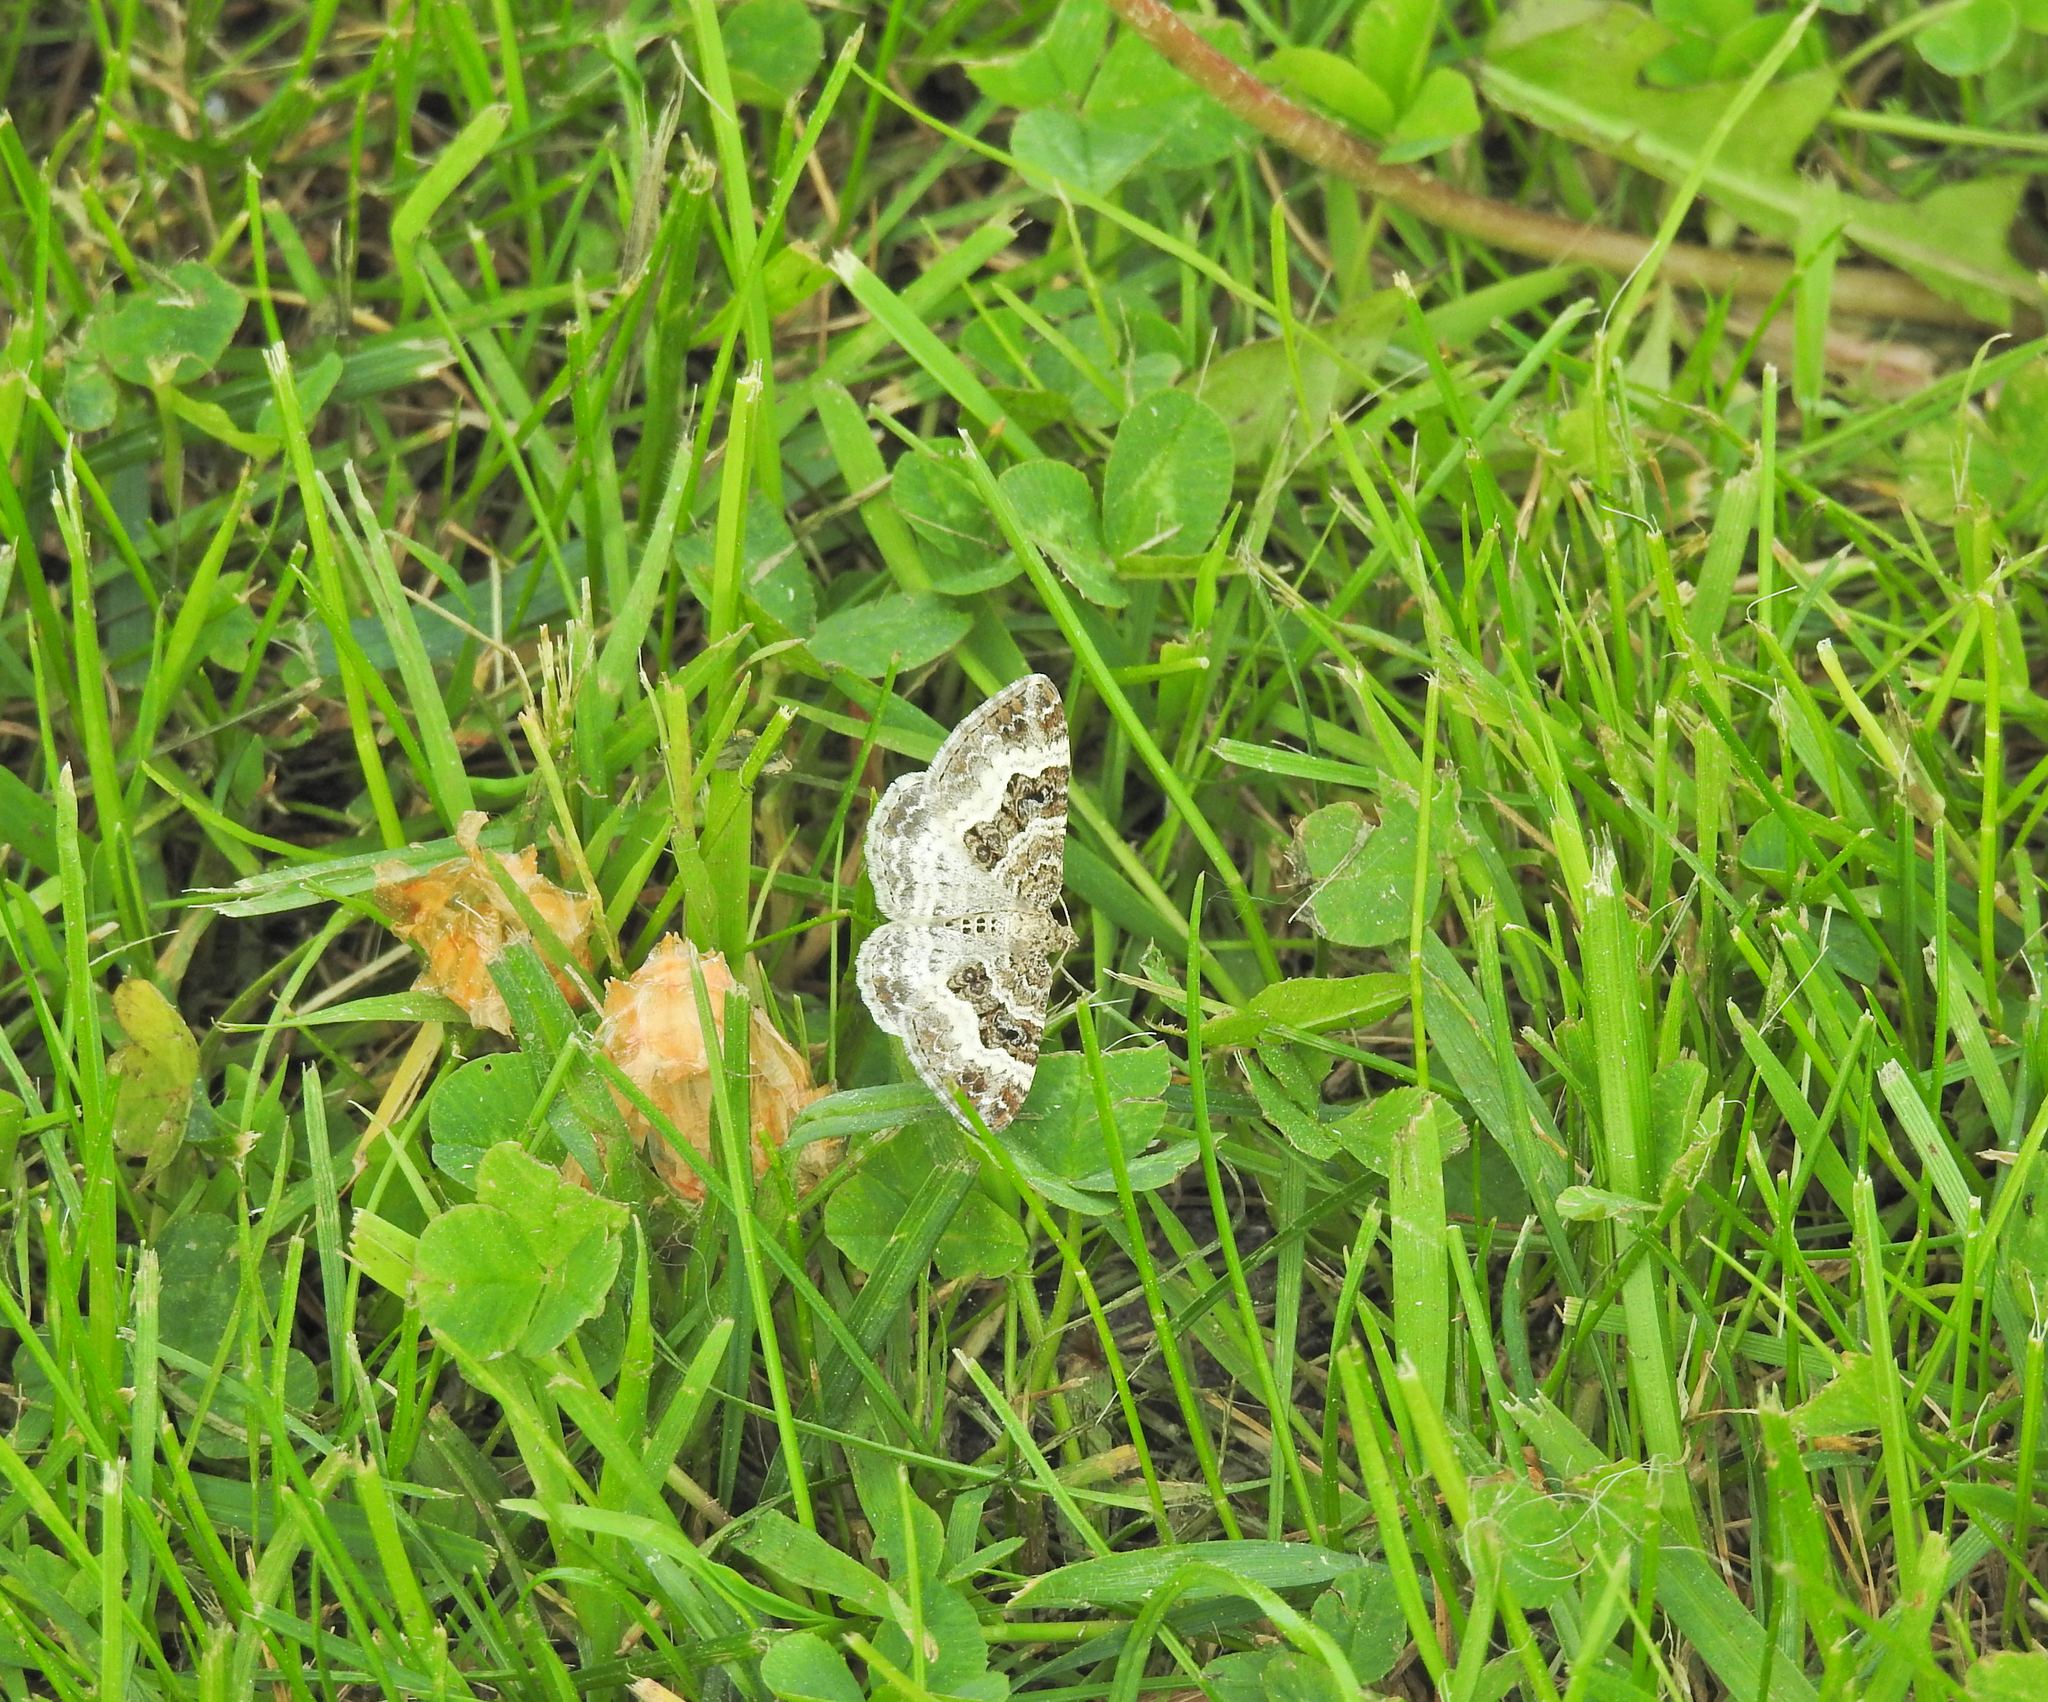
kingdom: Animalia
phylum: Arthropoda
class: Insecta
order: Lepidoptera
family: Geometridae
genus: Epirrhoe
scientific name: Epirrhoe alternata
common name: Common carpet
